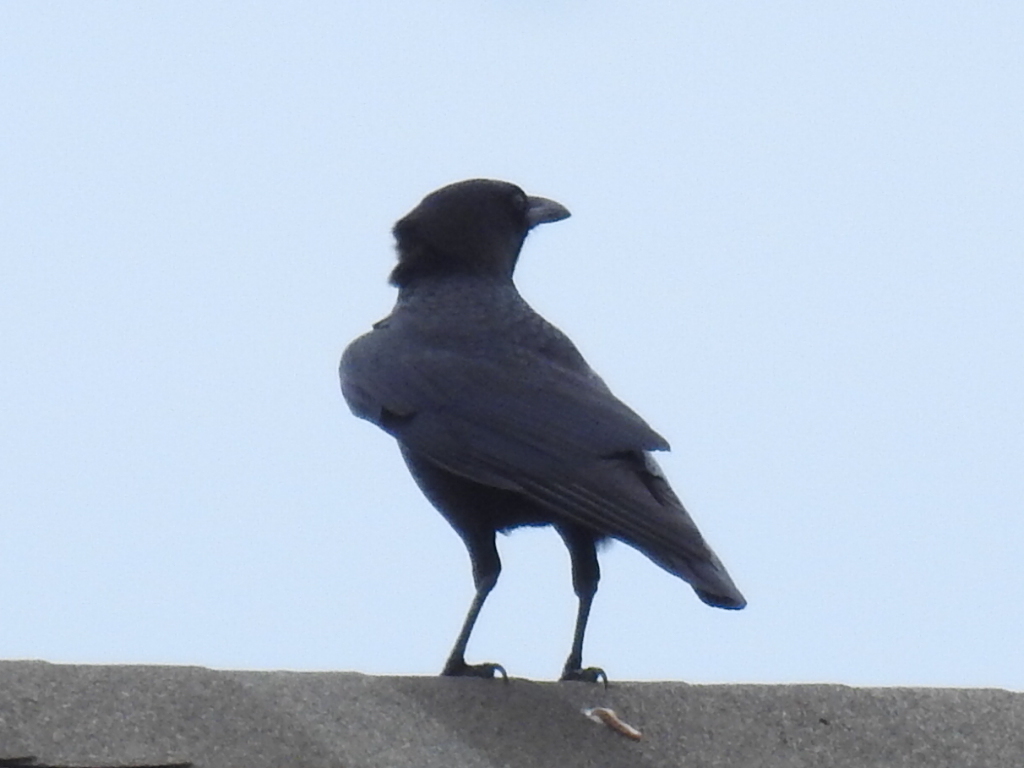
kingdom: Animalia
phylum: Chordata
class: Aves
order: Passeriformes
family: Corvidae
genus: Corvus
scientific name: Corvus brachyrhynchos
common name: American crow
